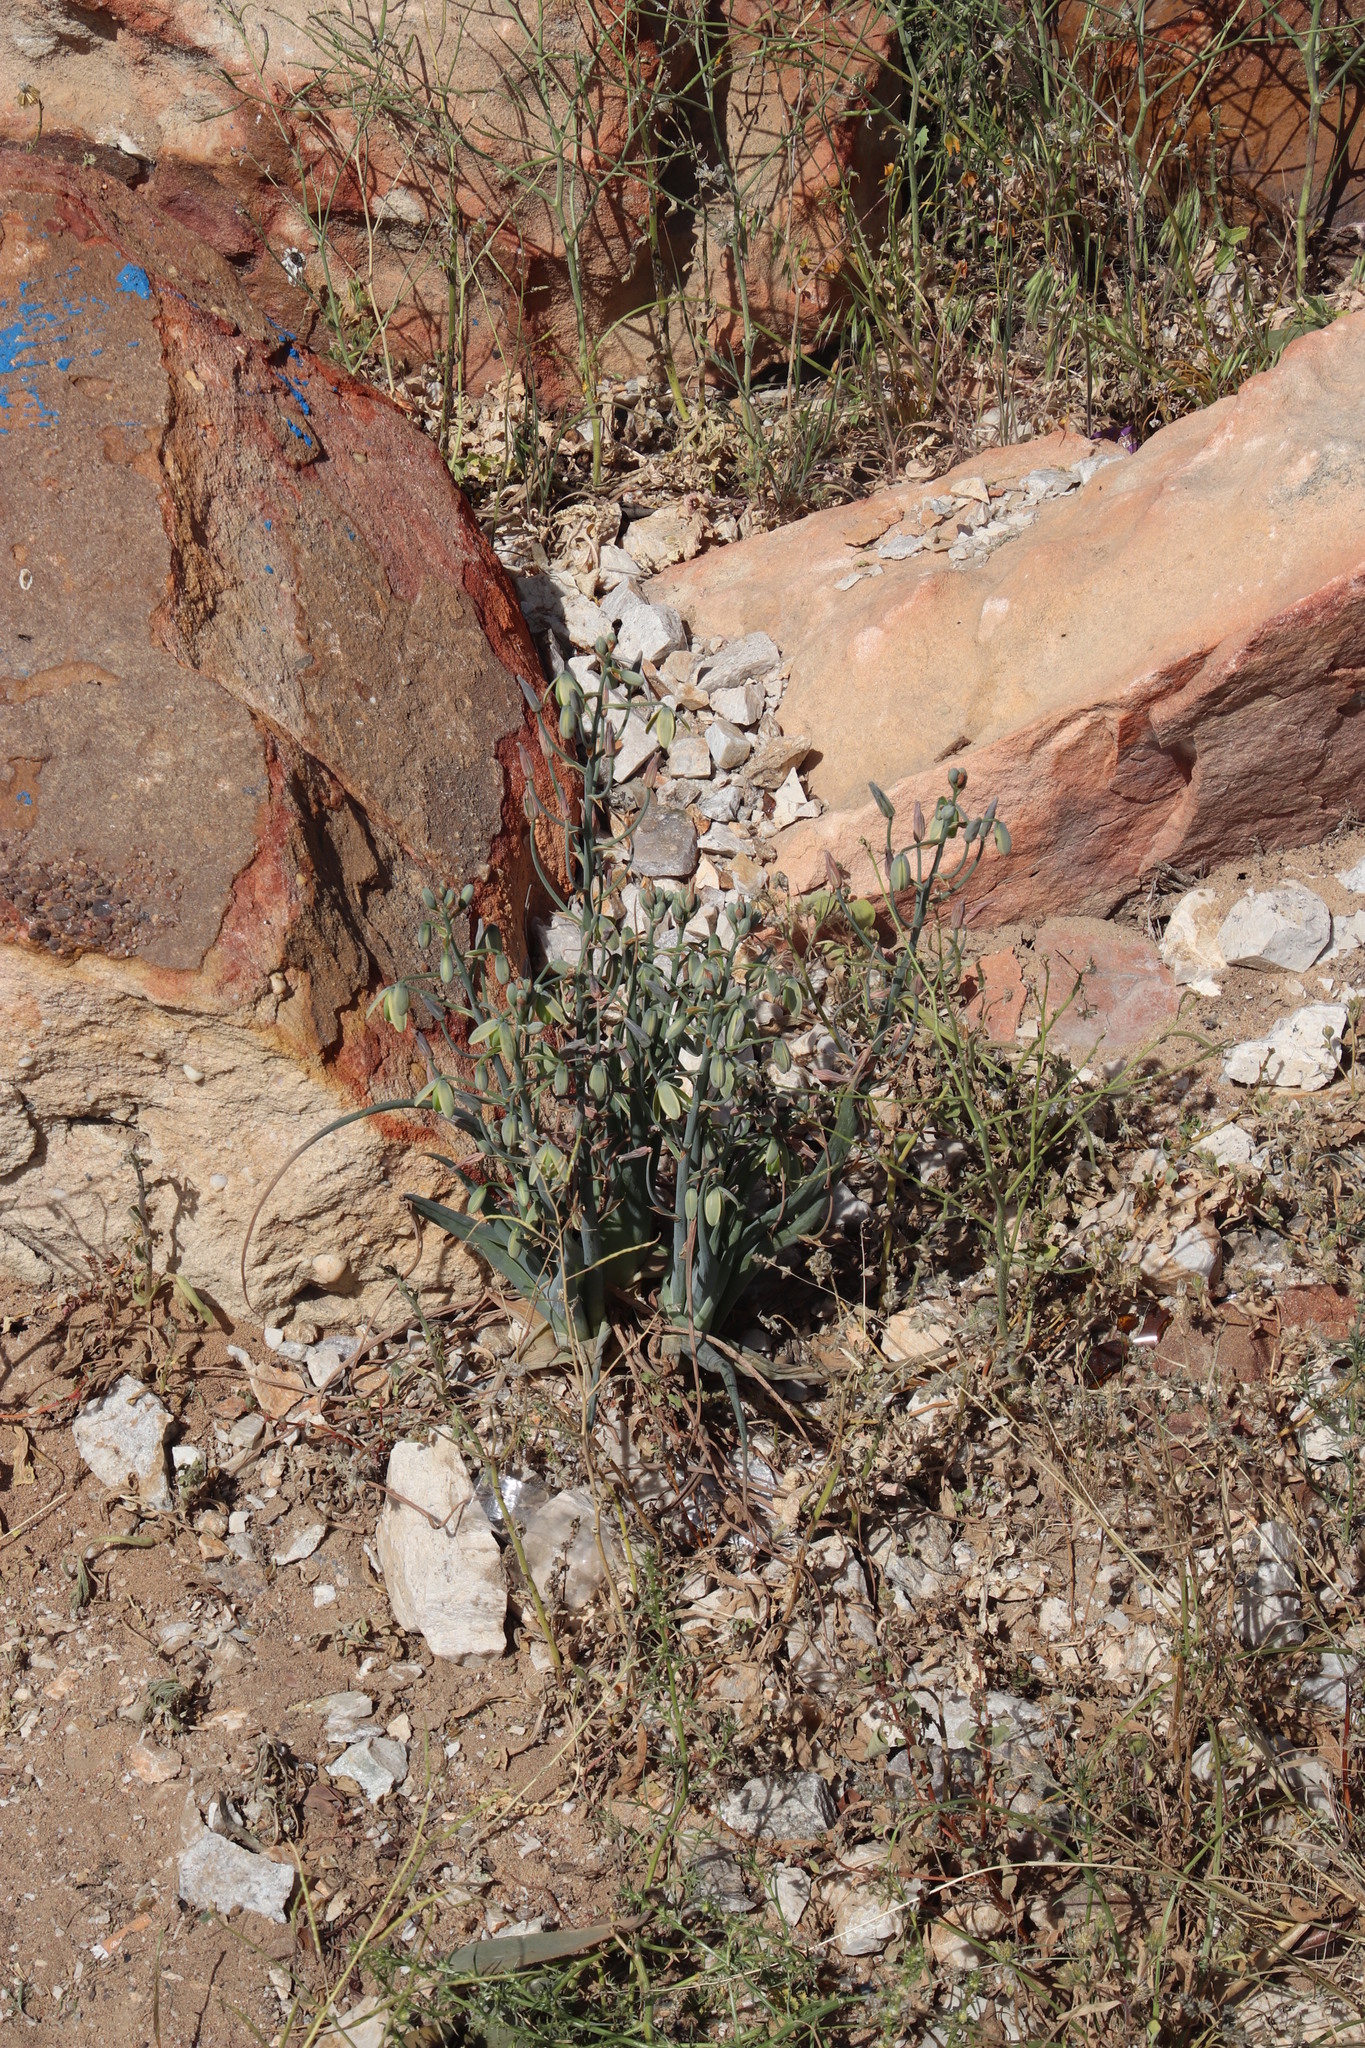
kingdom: Plantae
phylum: Tracheophyta
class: Liliopsida
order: Asparagales
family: Asparagaceae
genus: Albuca
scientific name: Albuca paradoxa
